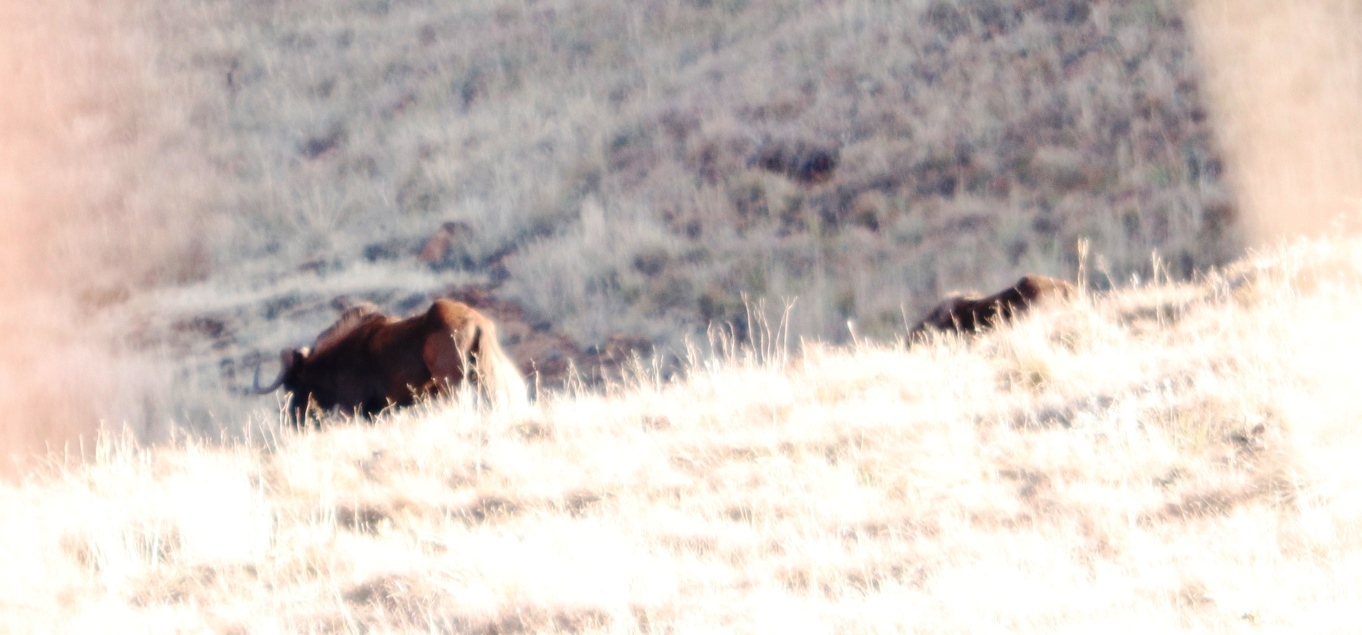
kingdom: Animalia
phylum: Chordata
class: Mammalia
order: Artiodactyla
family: Bovidae
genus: Connochaetes
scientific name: Connochaetes gnou
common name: Black wildebeest
